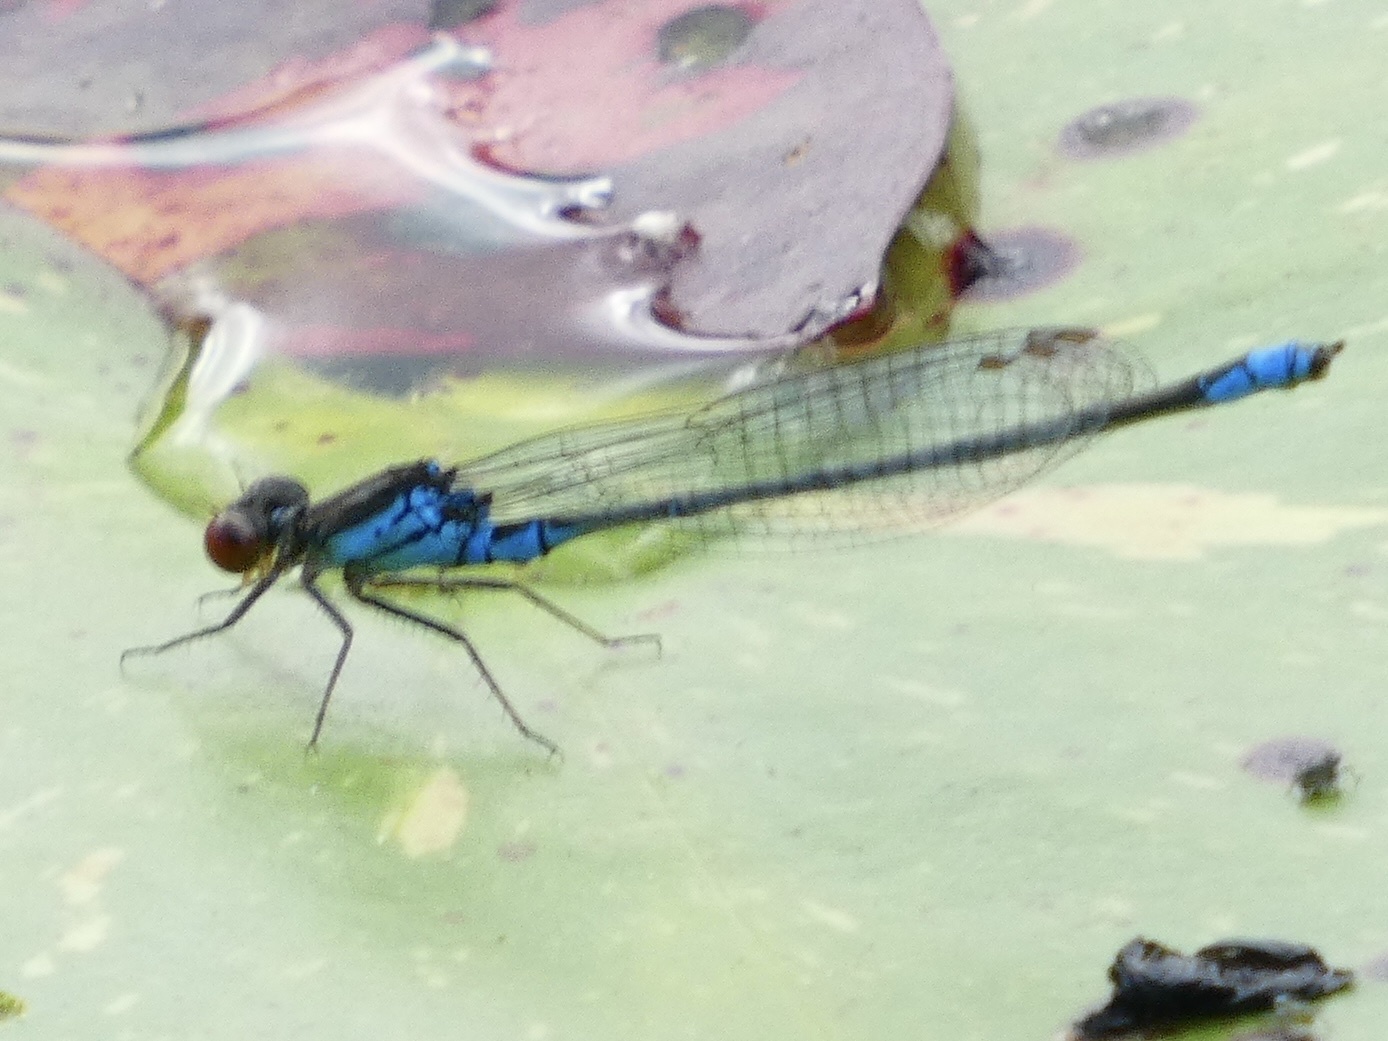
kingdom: Animalia
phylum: Arthropoda
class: Insecta
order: Odonata
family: Coenagrionidae
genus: Erythromma
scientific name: Erythromma viridulum
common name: Small red-eyed damselfly
